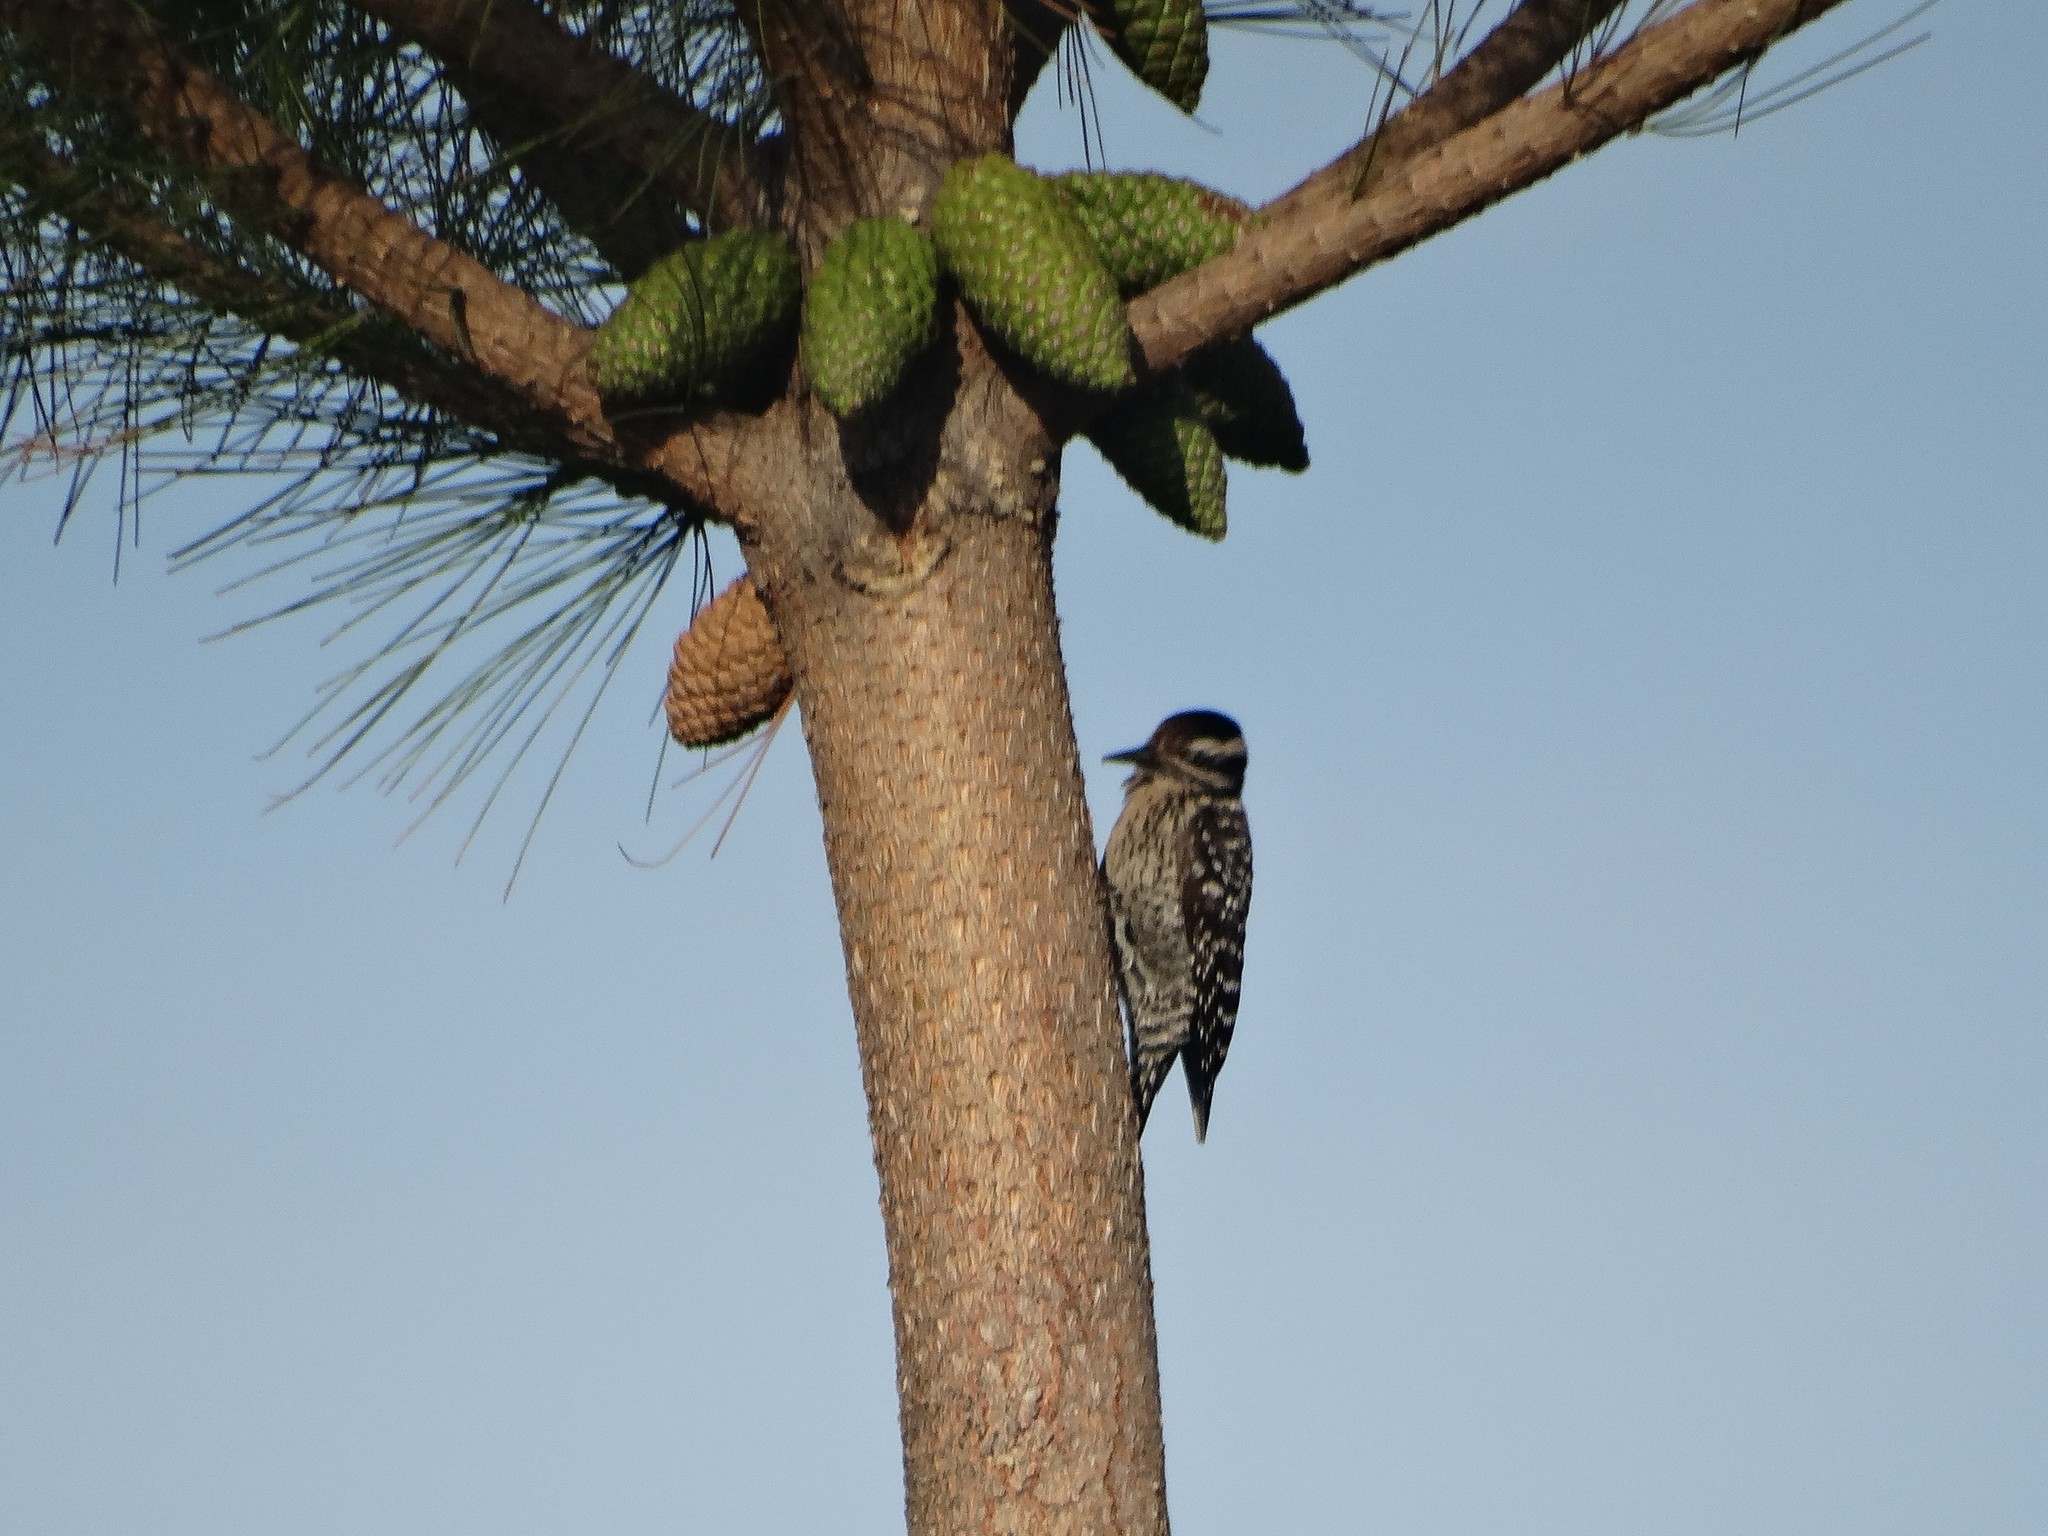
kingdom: Animalia
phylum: Chordata
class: Aves
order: Piciformes
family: Picidae
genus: Dryobates
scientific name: Dryobates scalaris
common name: Ladder-backed woodpecker
